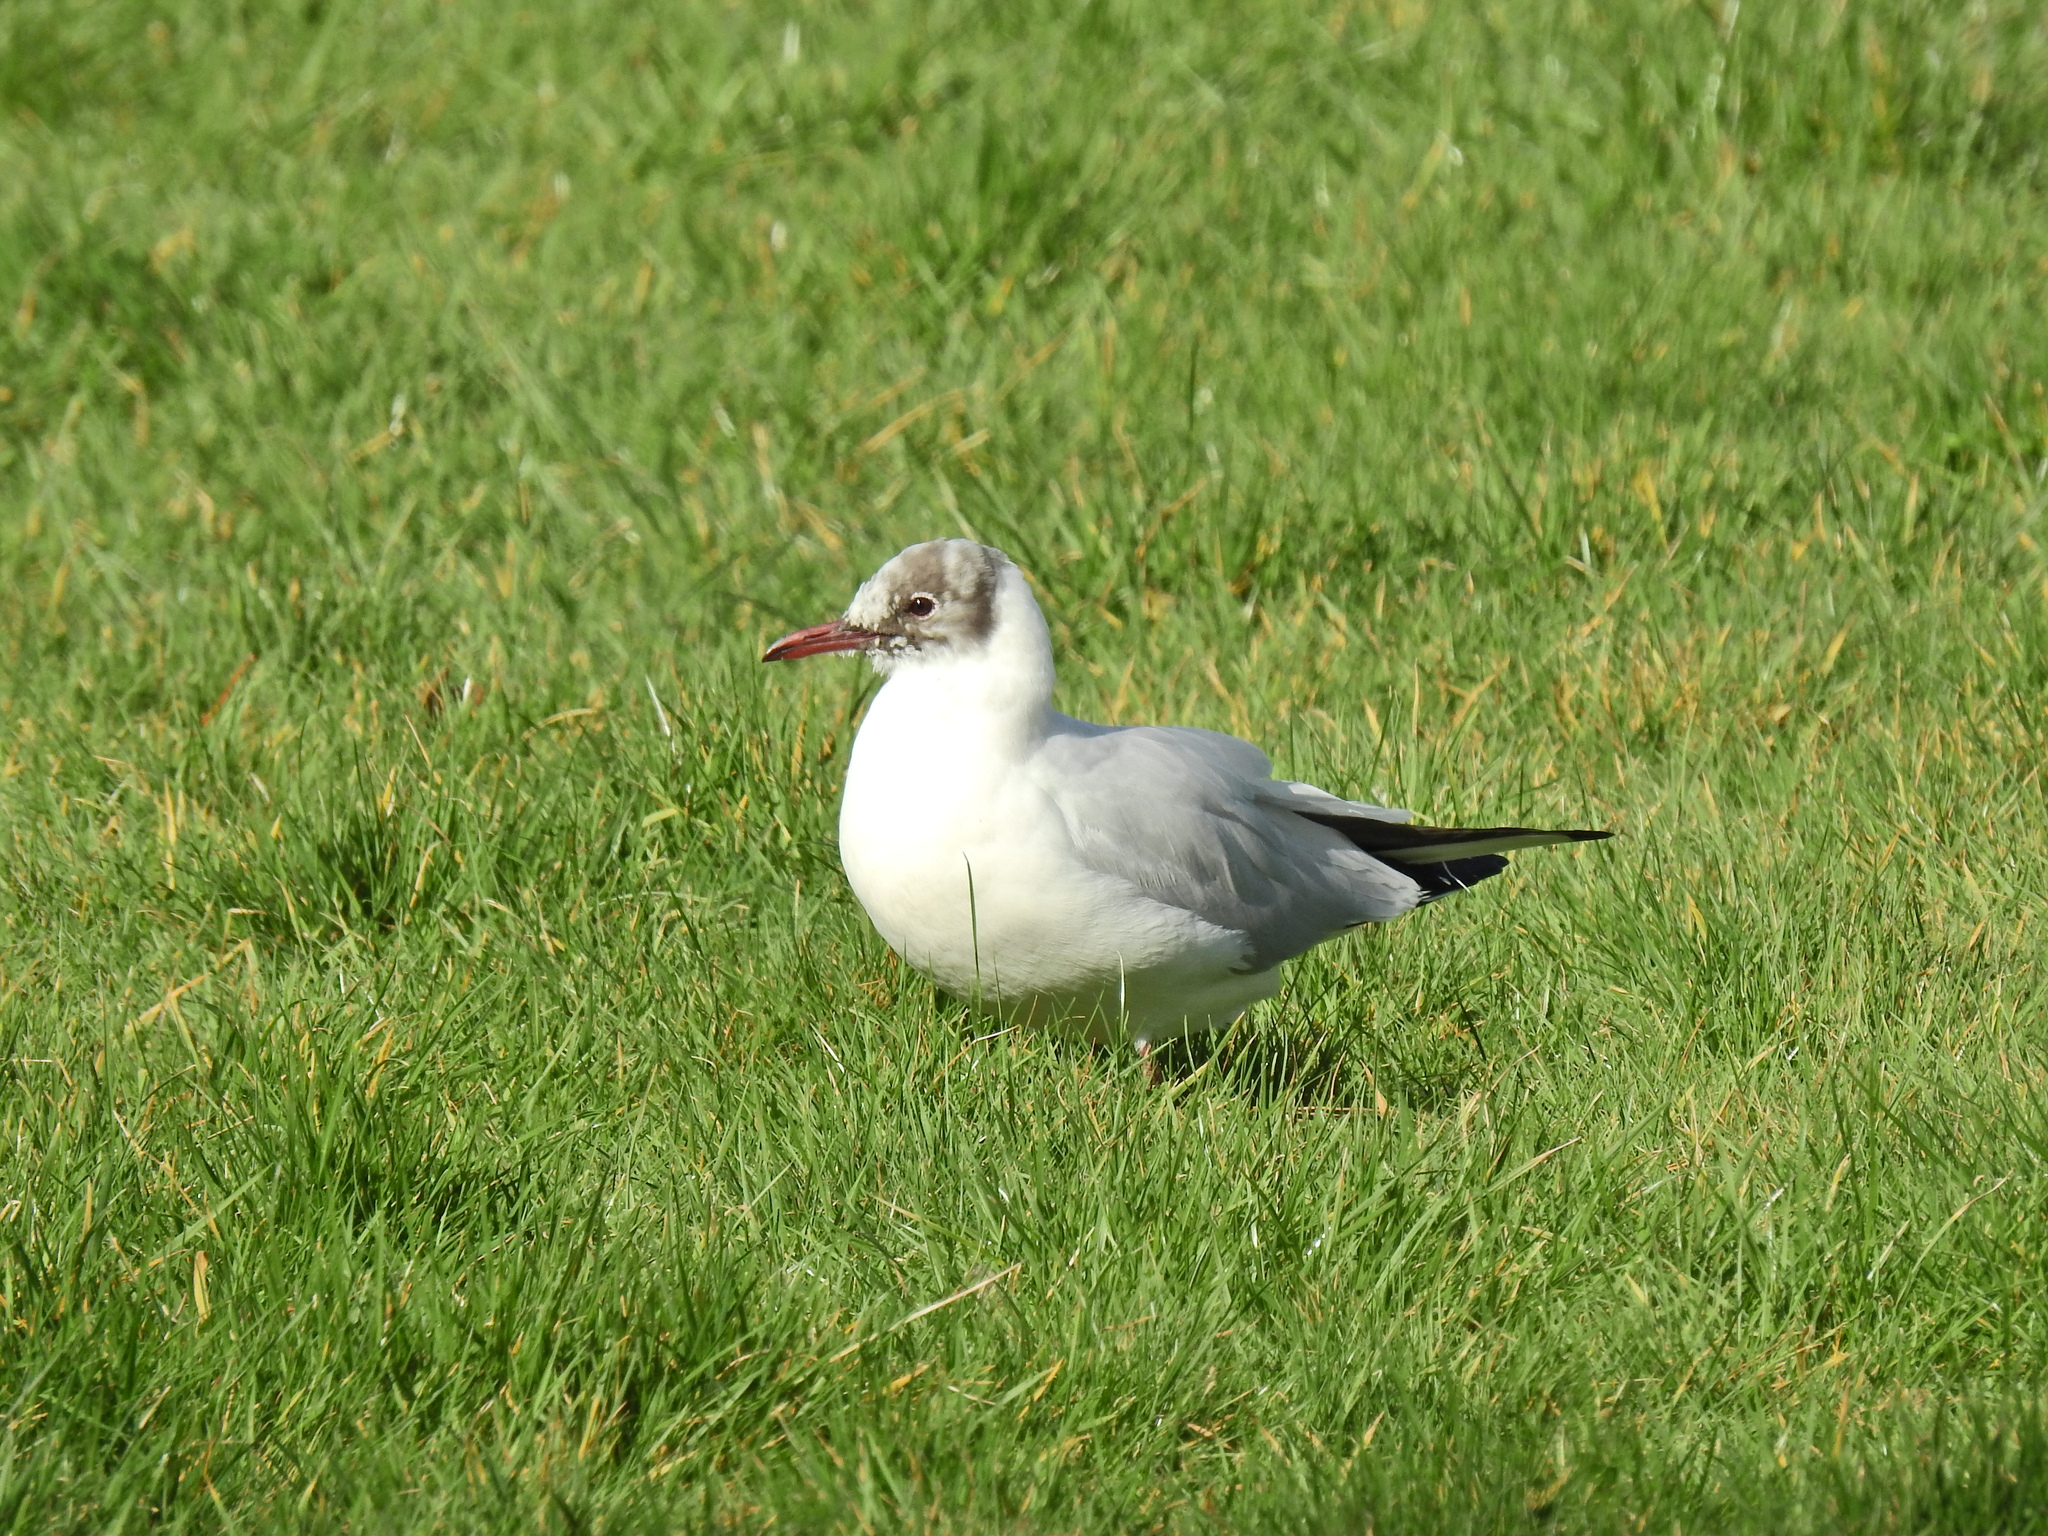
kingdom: Animalia
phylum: Chordata
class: Aves
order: Charadriiformes
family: Laridae
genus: Chroicocephalus
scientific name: Chroicocephalus ridibundus
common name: Black-headed gull
